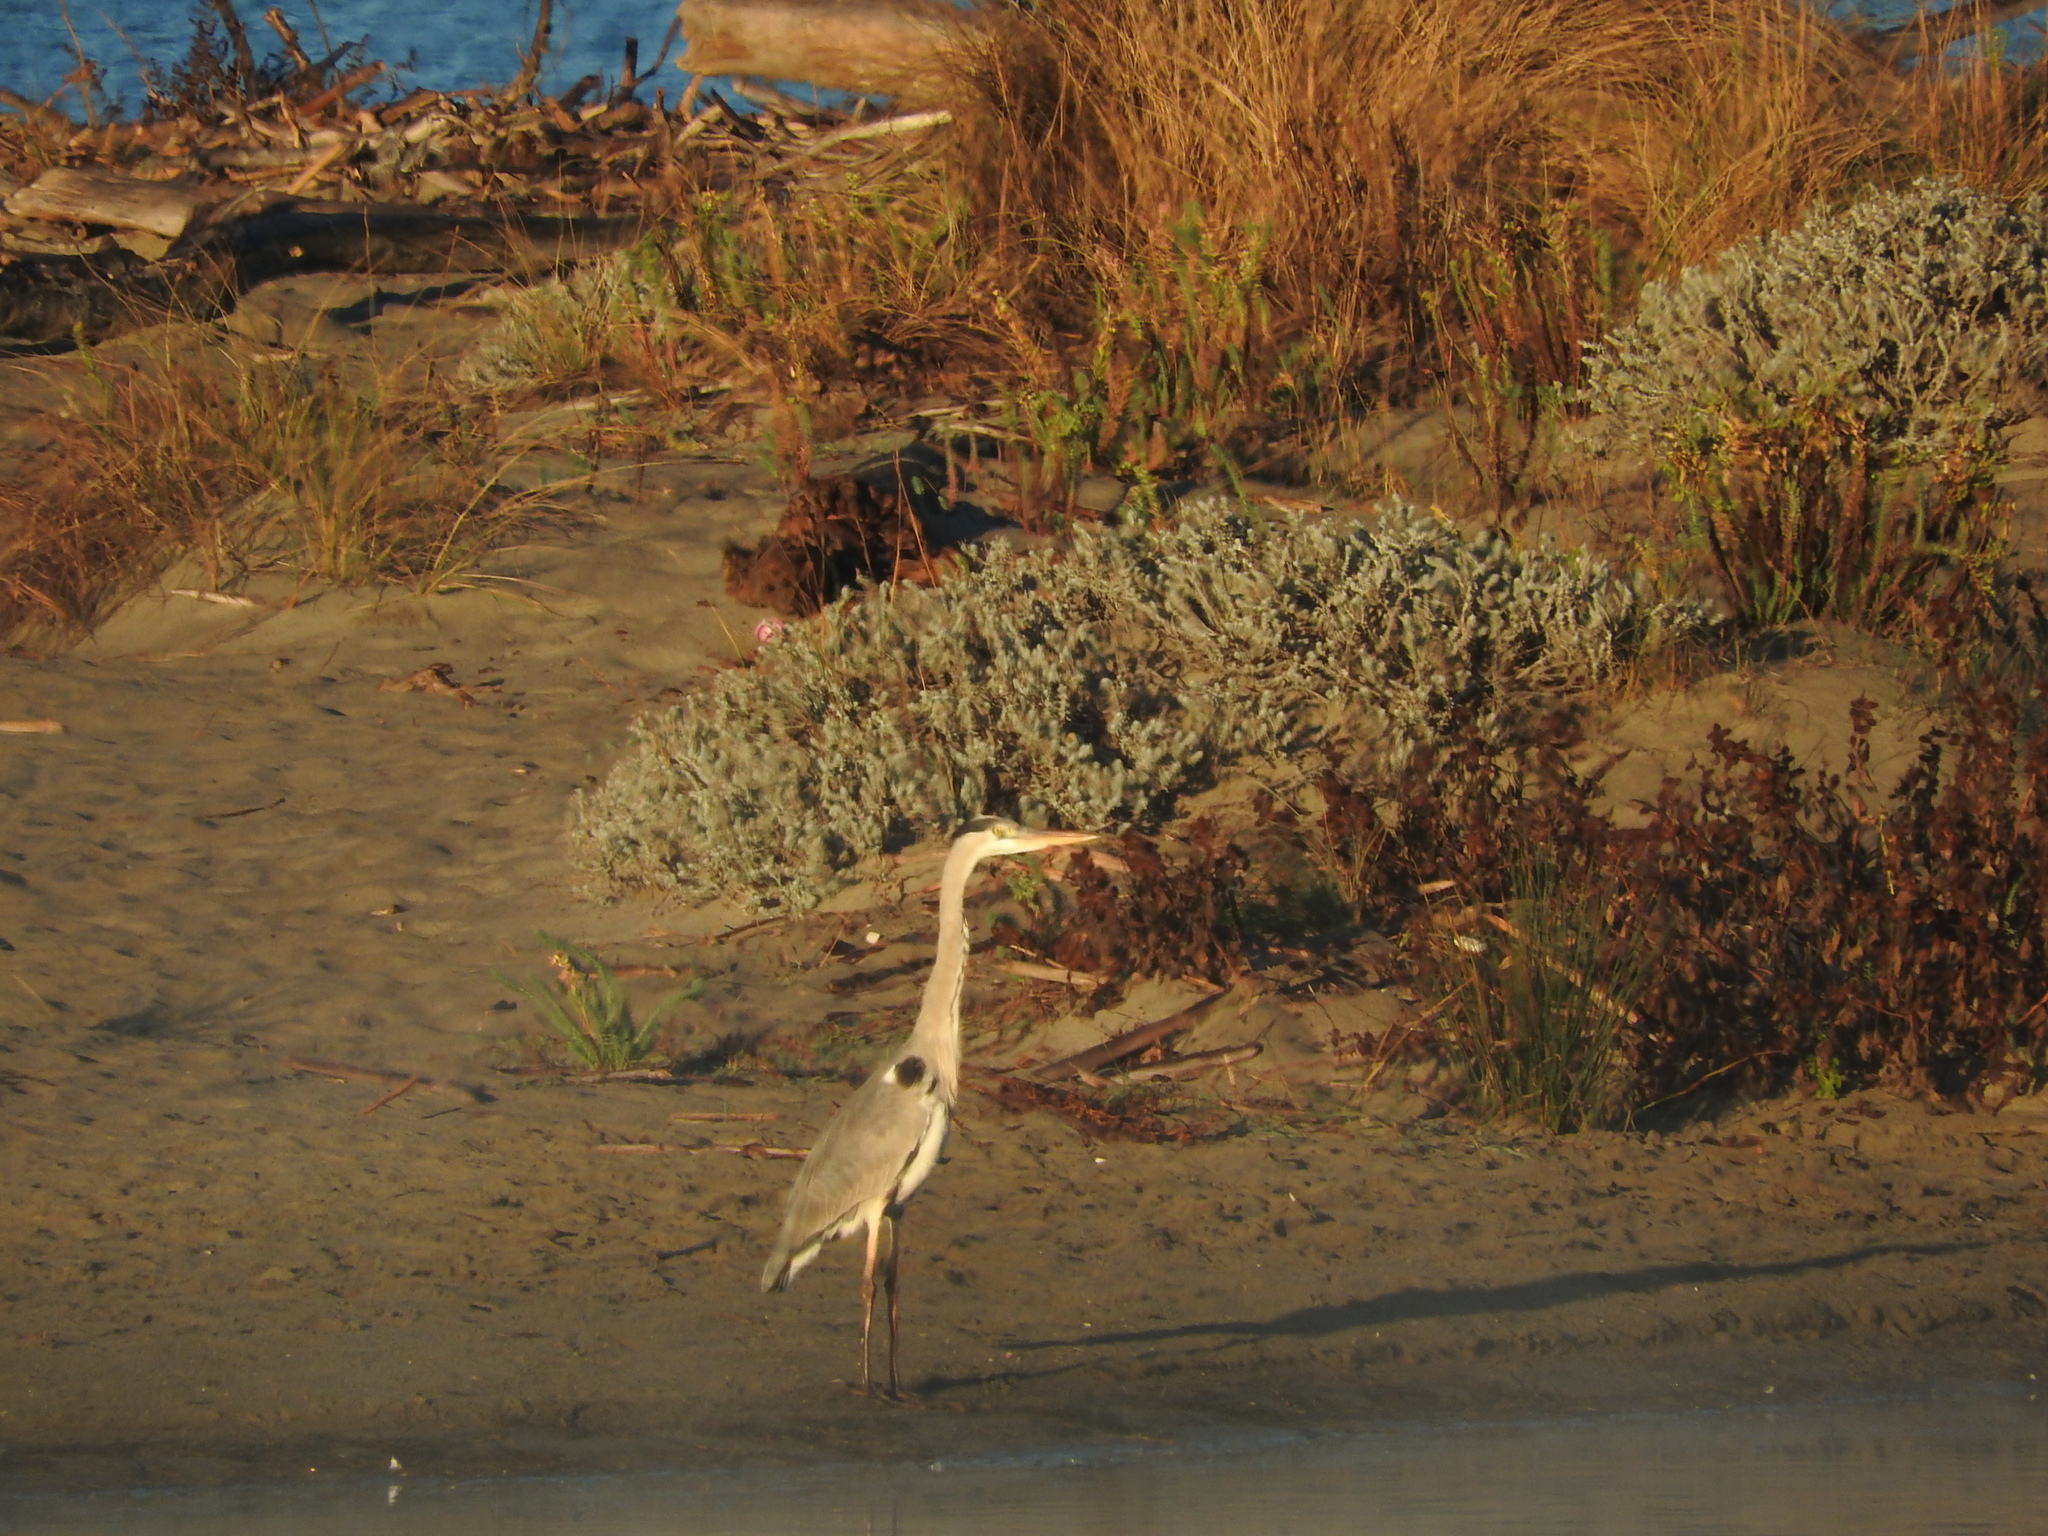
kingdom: Animalia
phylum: Chordata
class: Aves
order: Pelecaniformes
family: Ardeidae
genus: Ardea
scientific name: Ardea cinerea
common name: Grey heron
